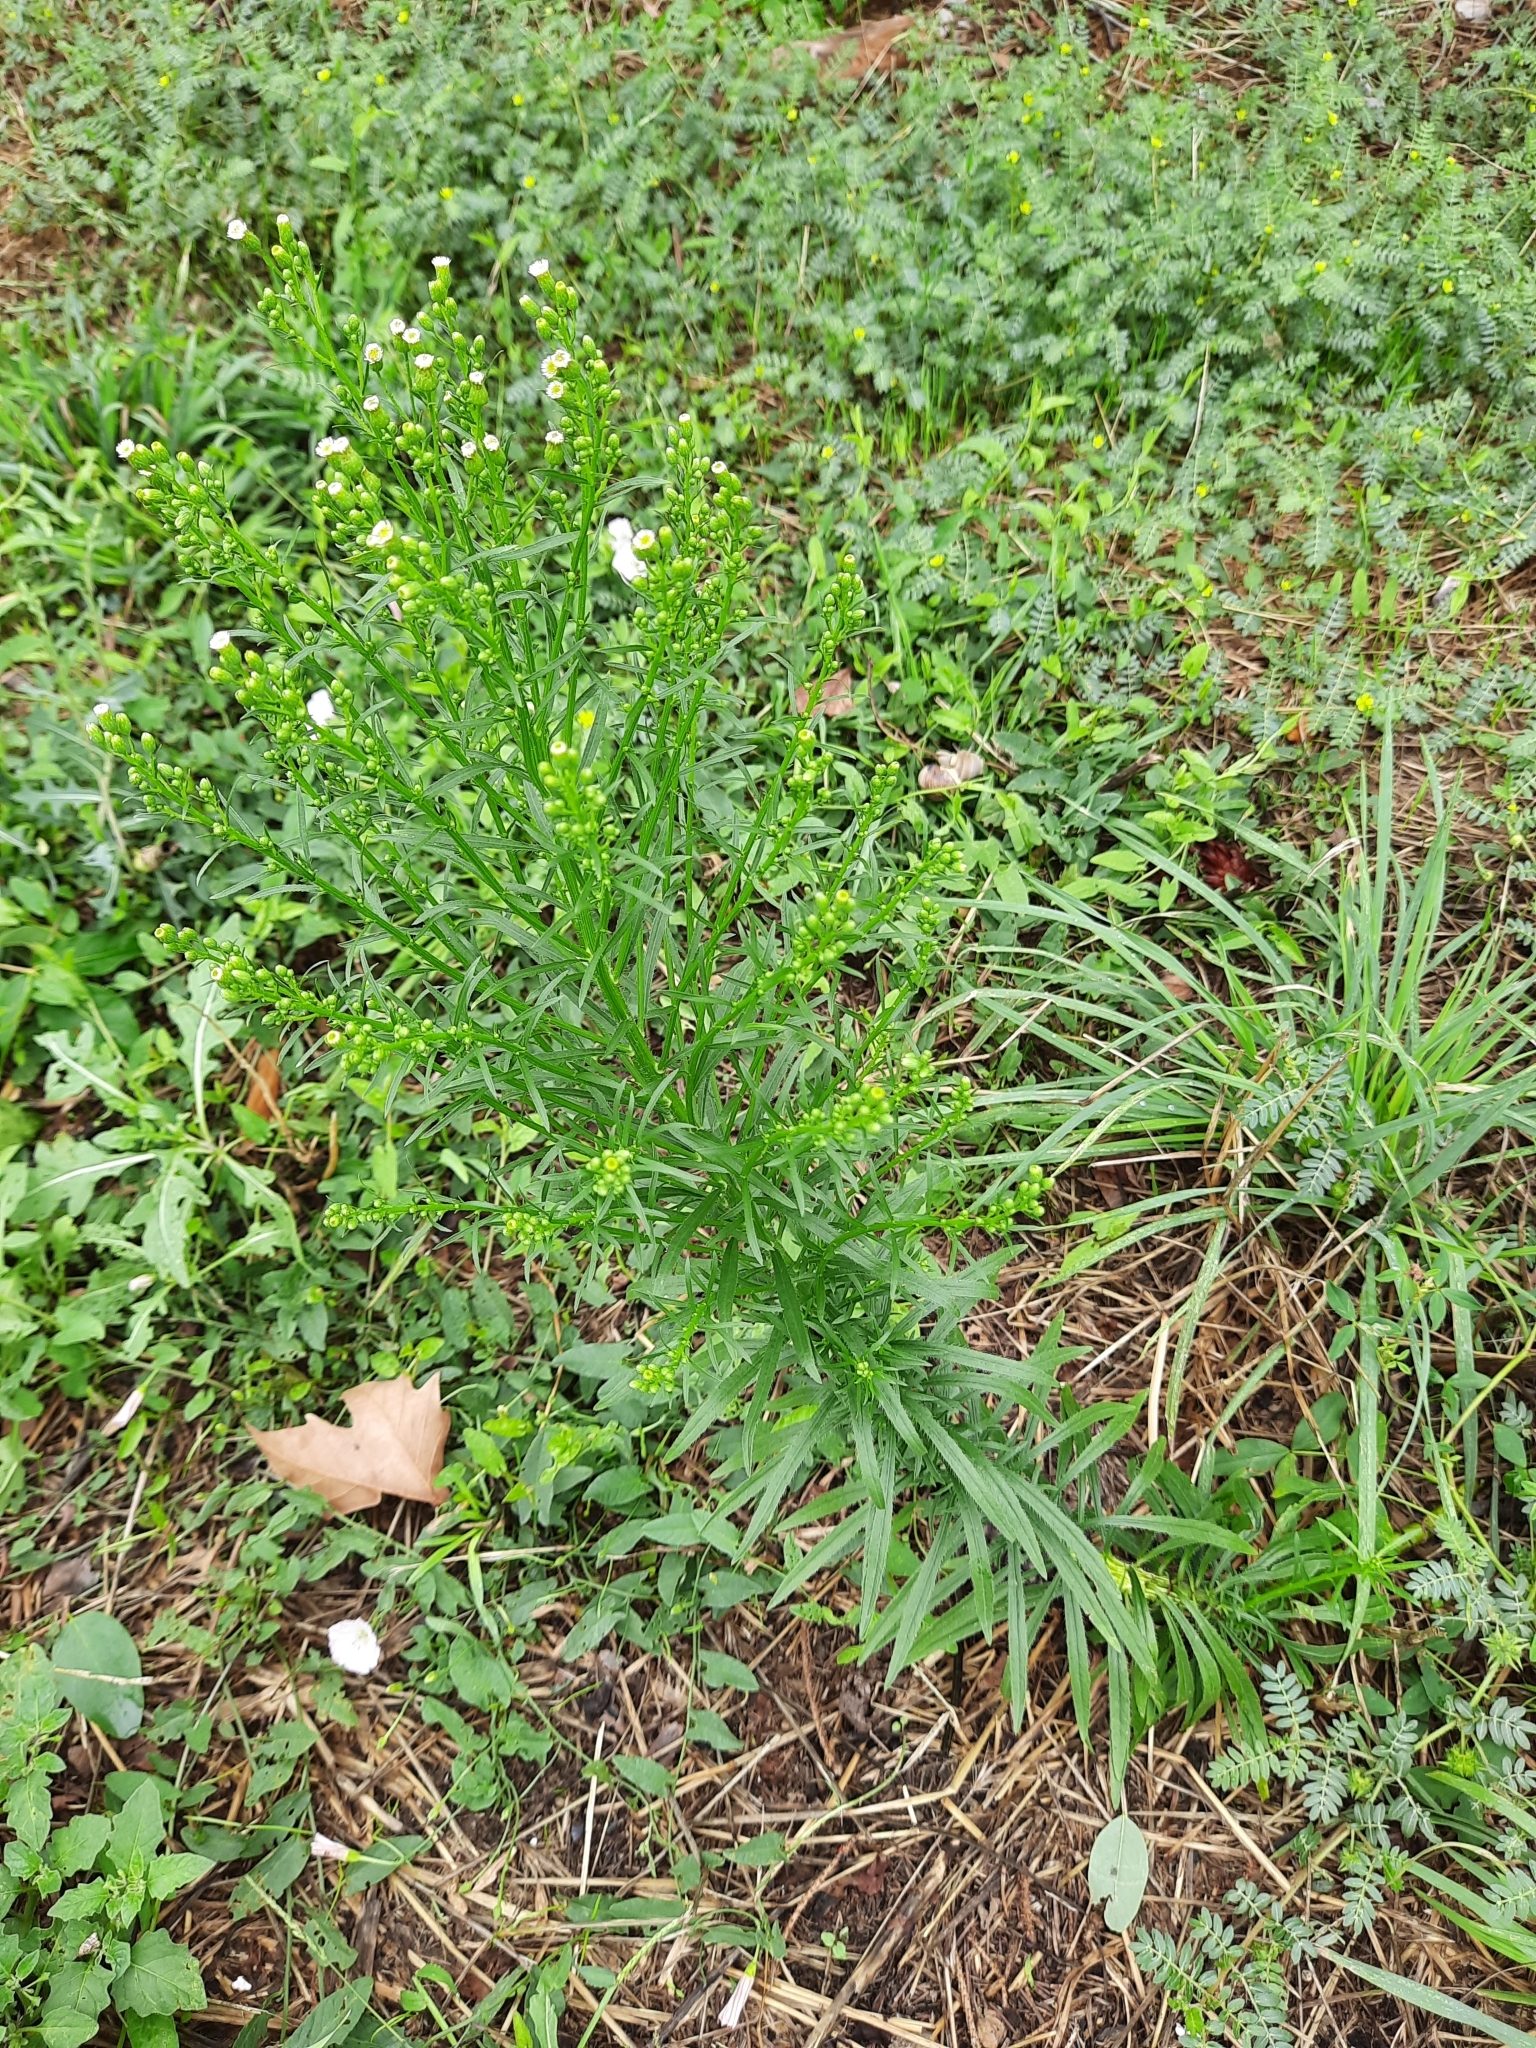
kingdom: Plantae
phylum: Tracheophyta
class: Magnoliopsida
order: Asterales
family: Asteraceae
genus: Erigeron
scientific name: Erigeron canadensis
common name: Canadian fleabane
